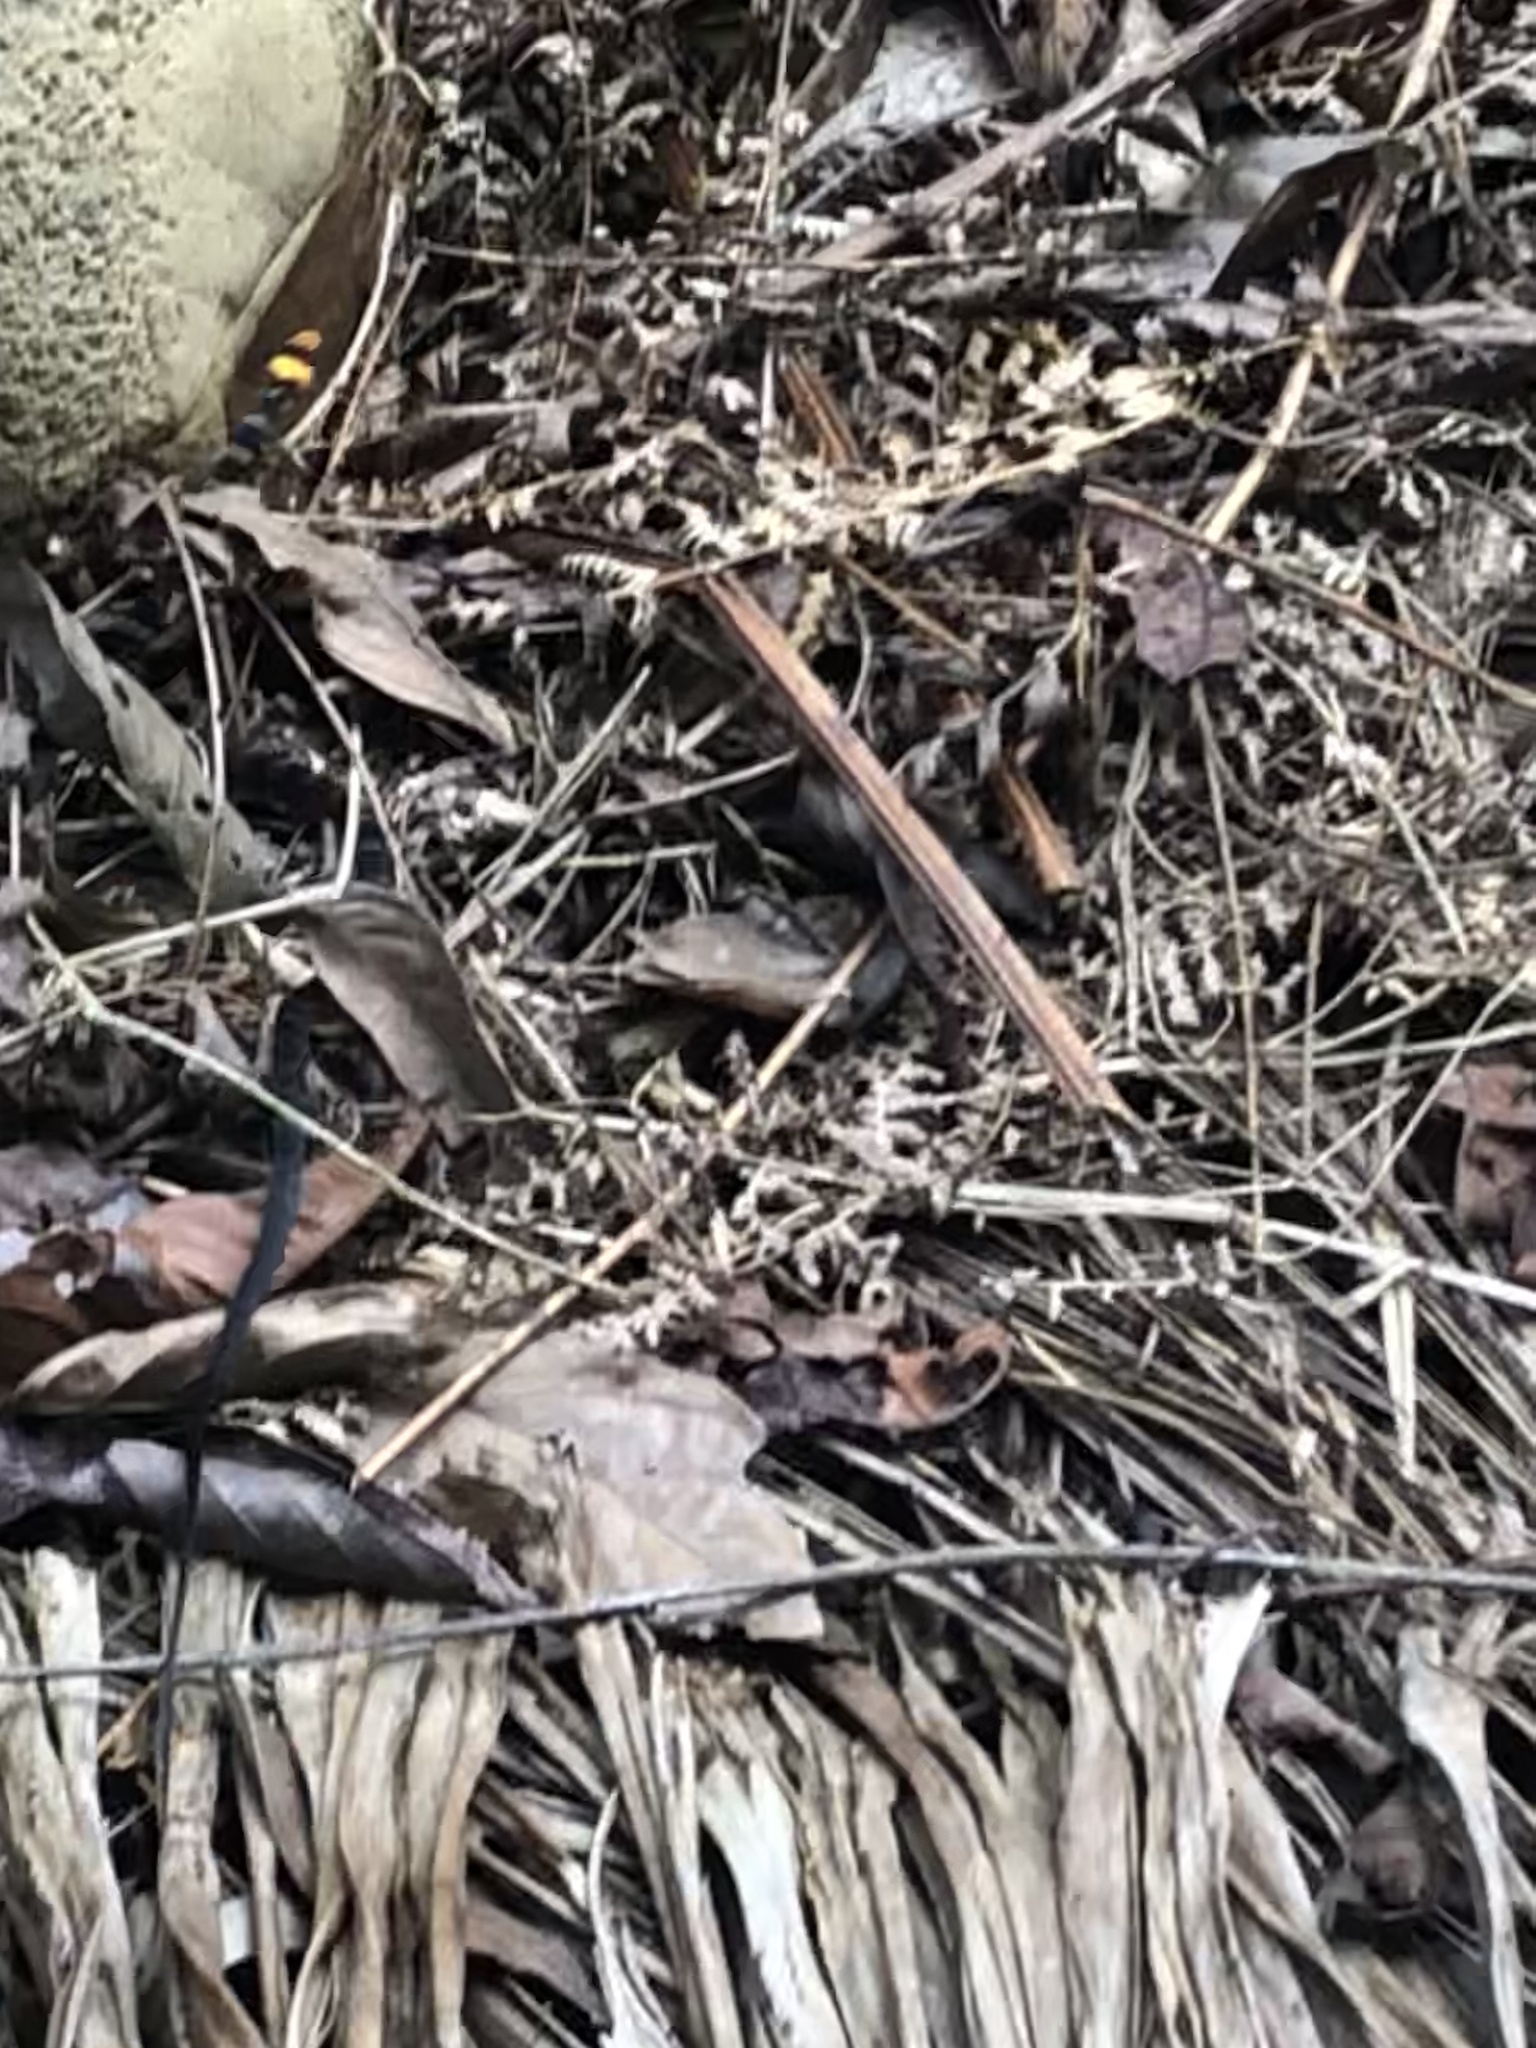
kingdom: Animalia
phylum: Chordata
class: Squamata
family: Colubridae
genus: Drymoluber
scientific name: Drymoluber dichrous
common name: Northern woodland racer
